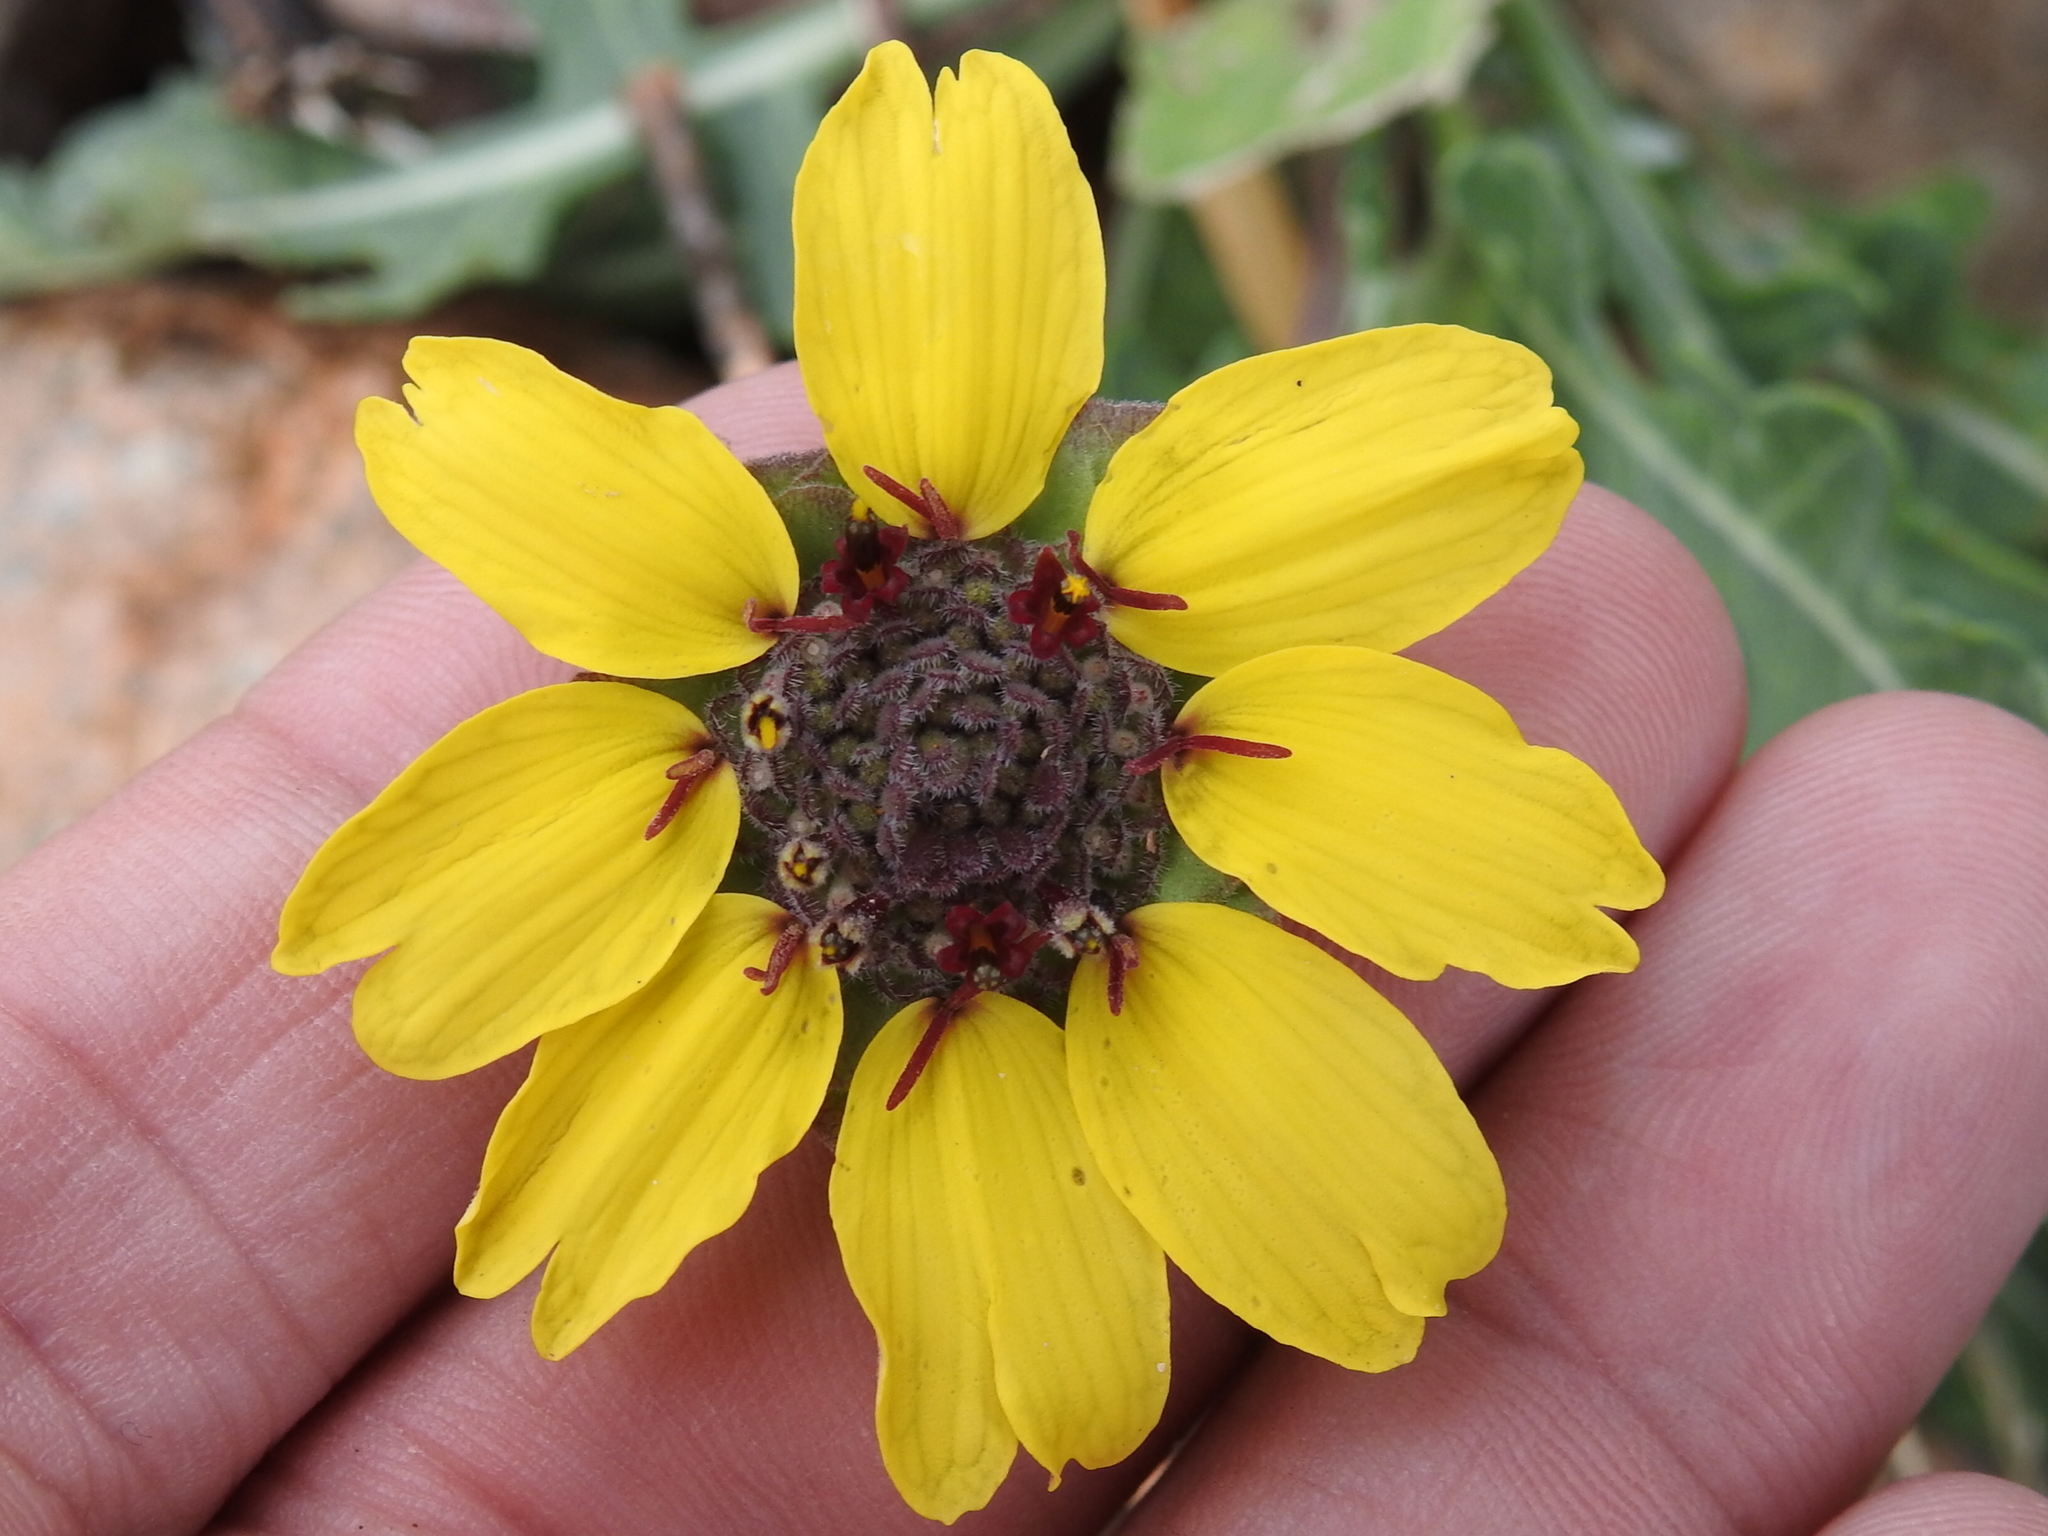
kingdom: Plantae
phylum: Tracheophyta
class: Magnoliopsida
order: Asterales
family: Asteraceae
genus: Berlandiera
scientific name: Berlandiera lyrata
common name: Chocolate-flower
